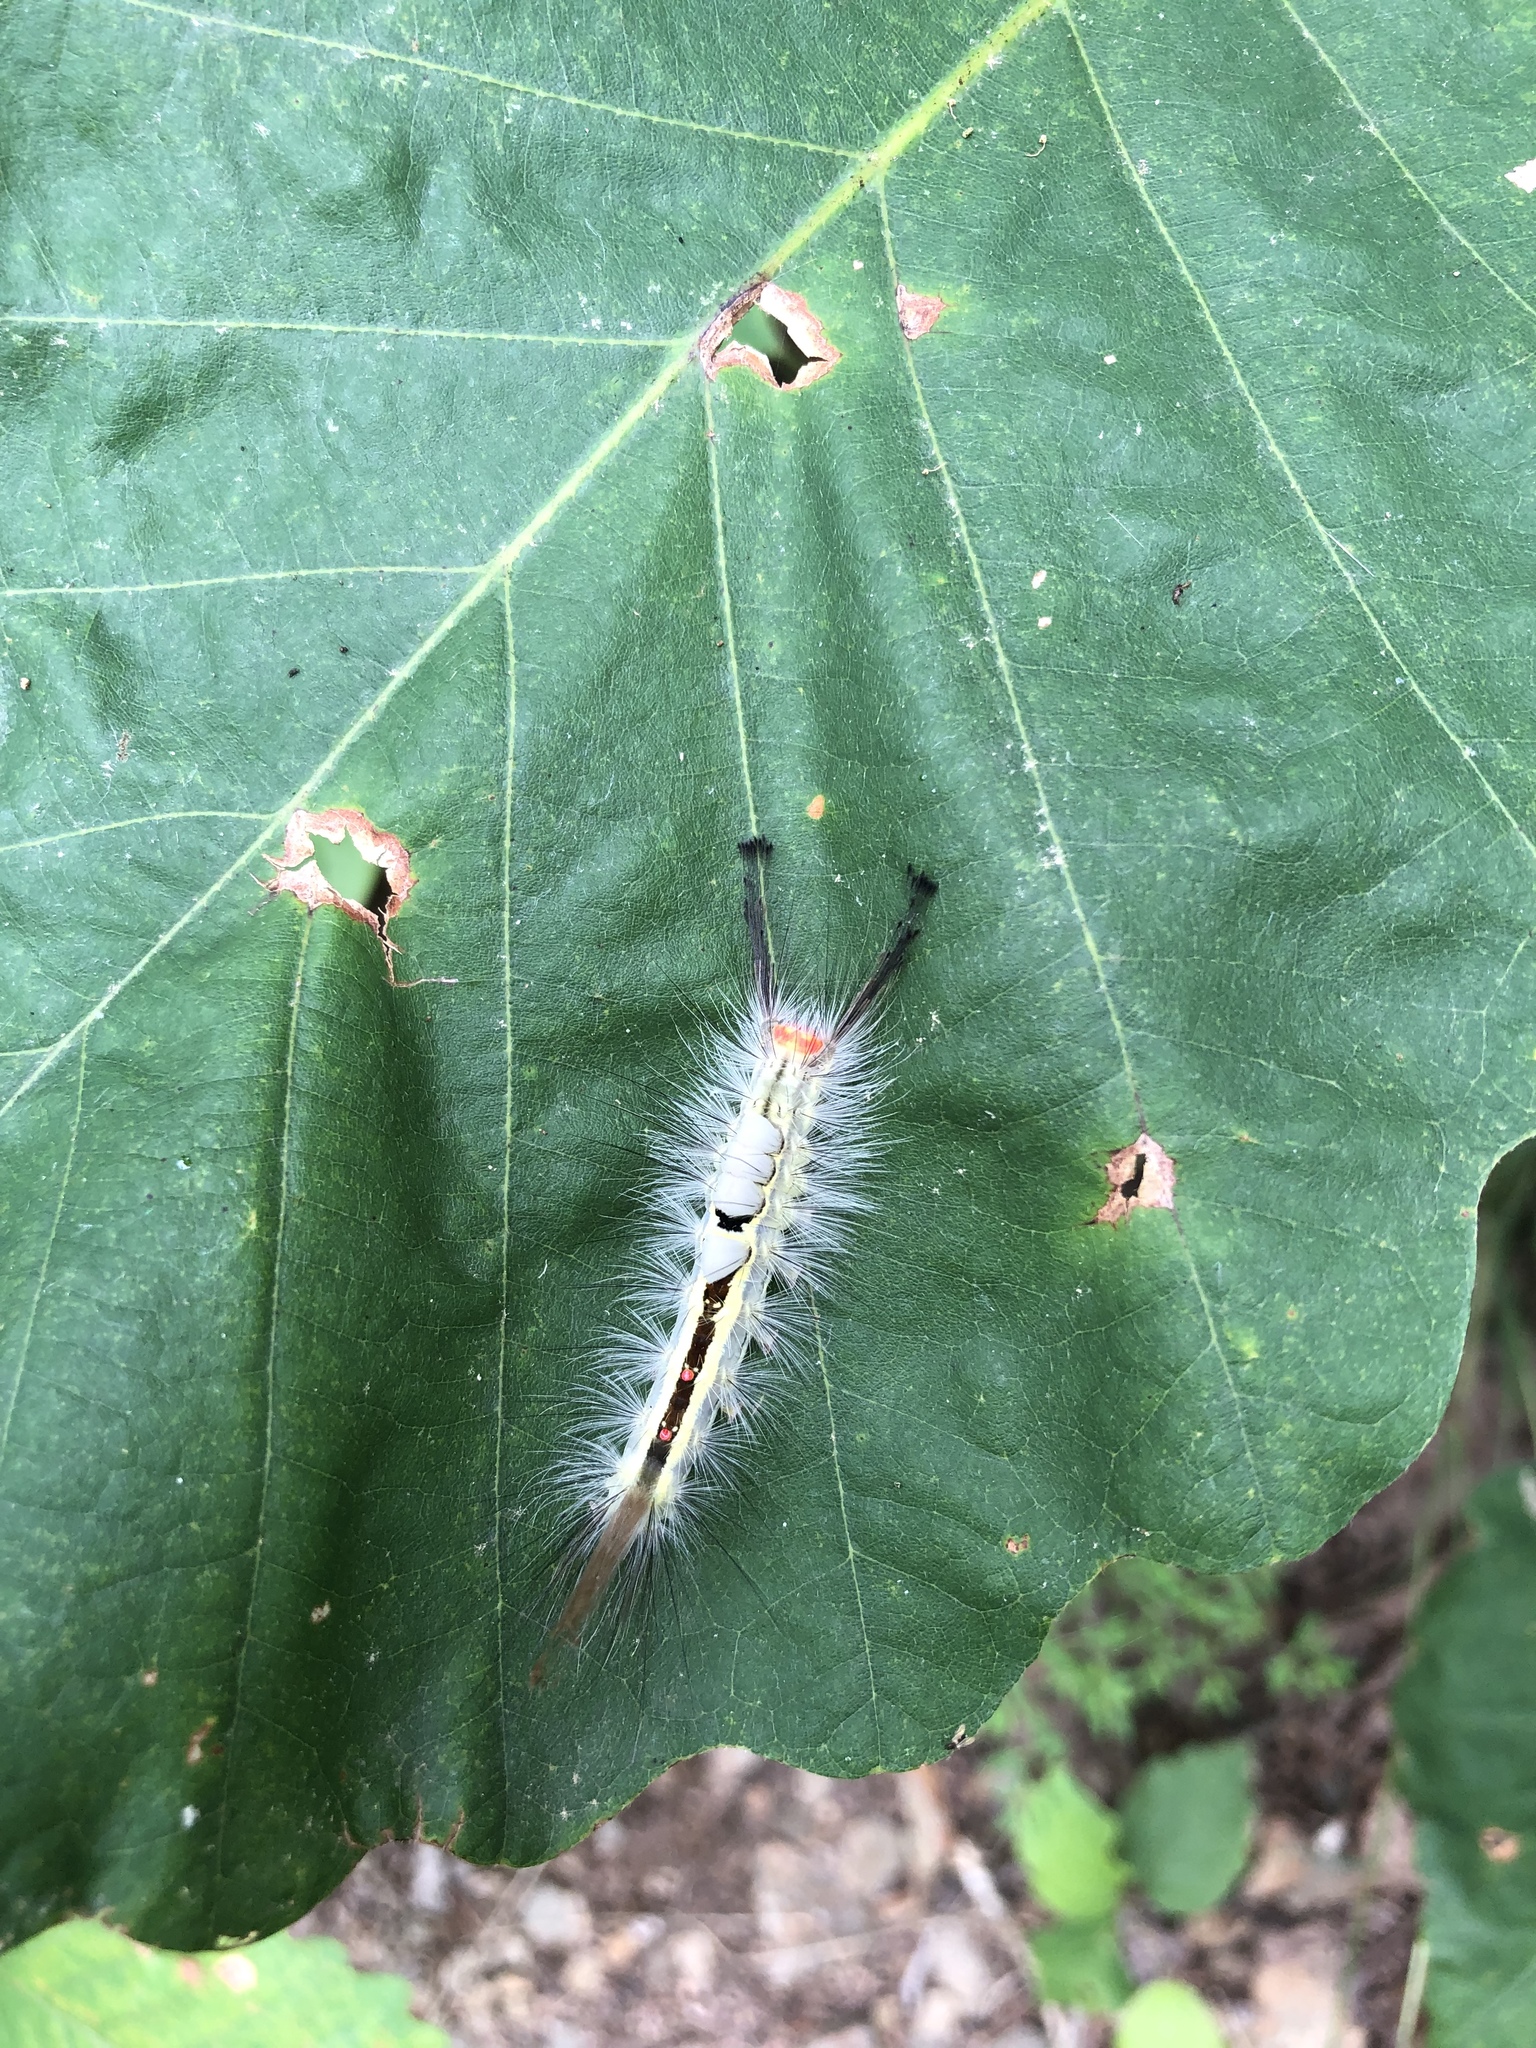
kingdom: Animalia
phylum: Arthropoda
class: Insecta
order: Lepidoptera
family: Erebidae
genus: Orgyia
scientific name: Orgyia leucostigma
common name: White-marked tussock moth
